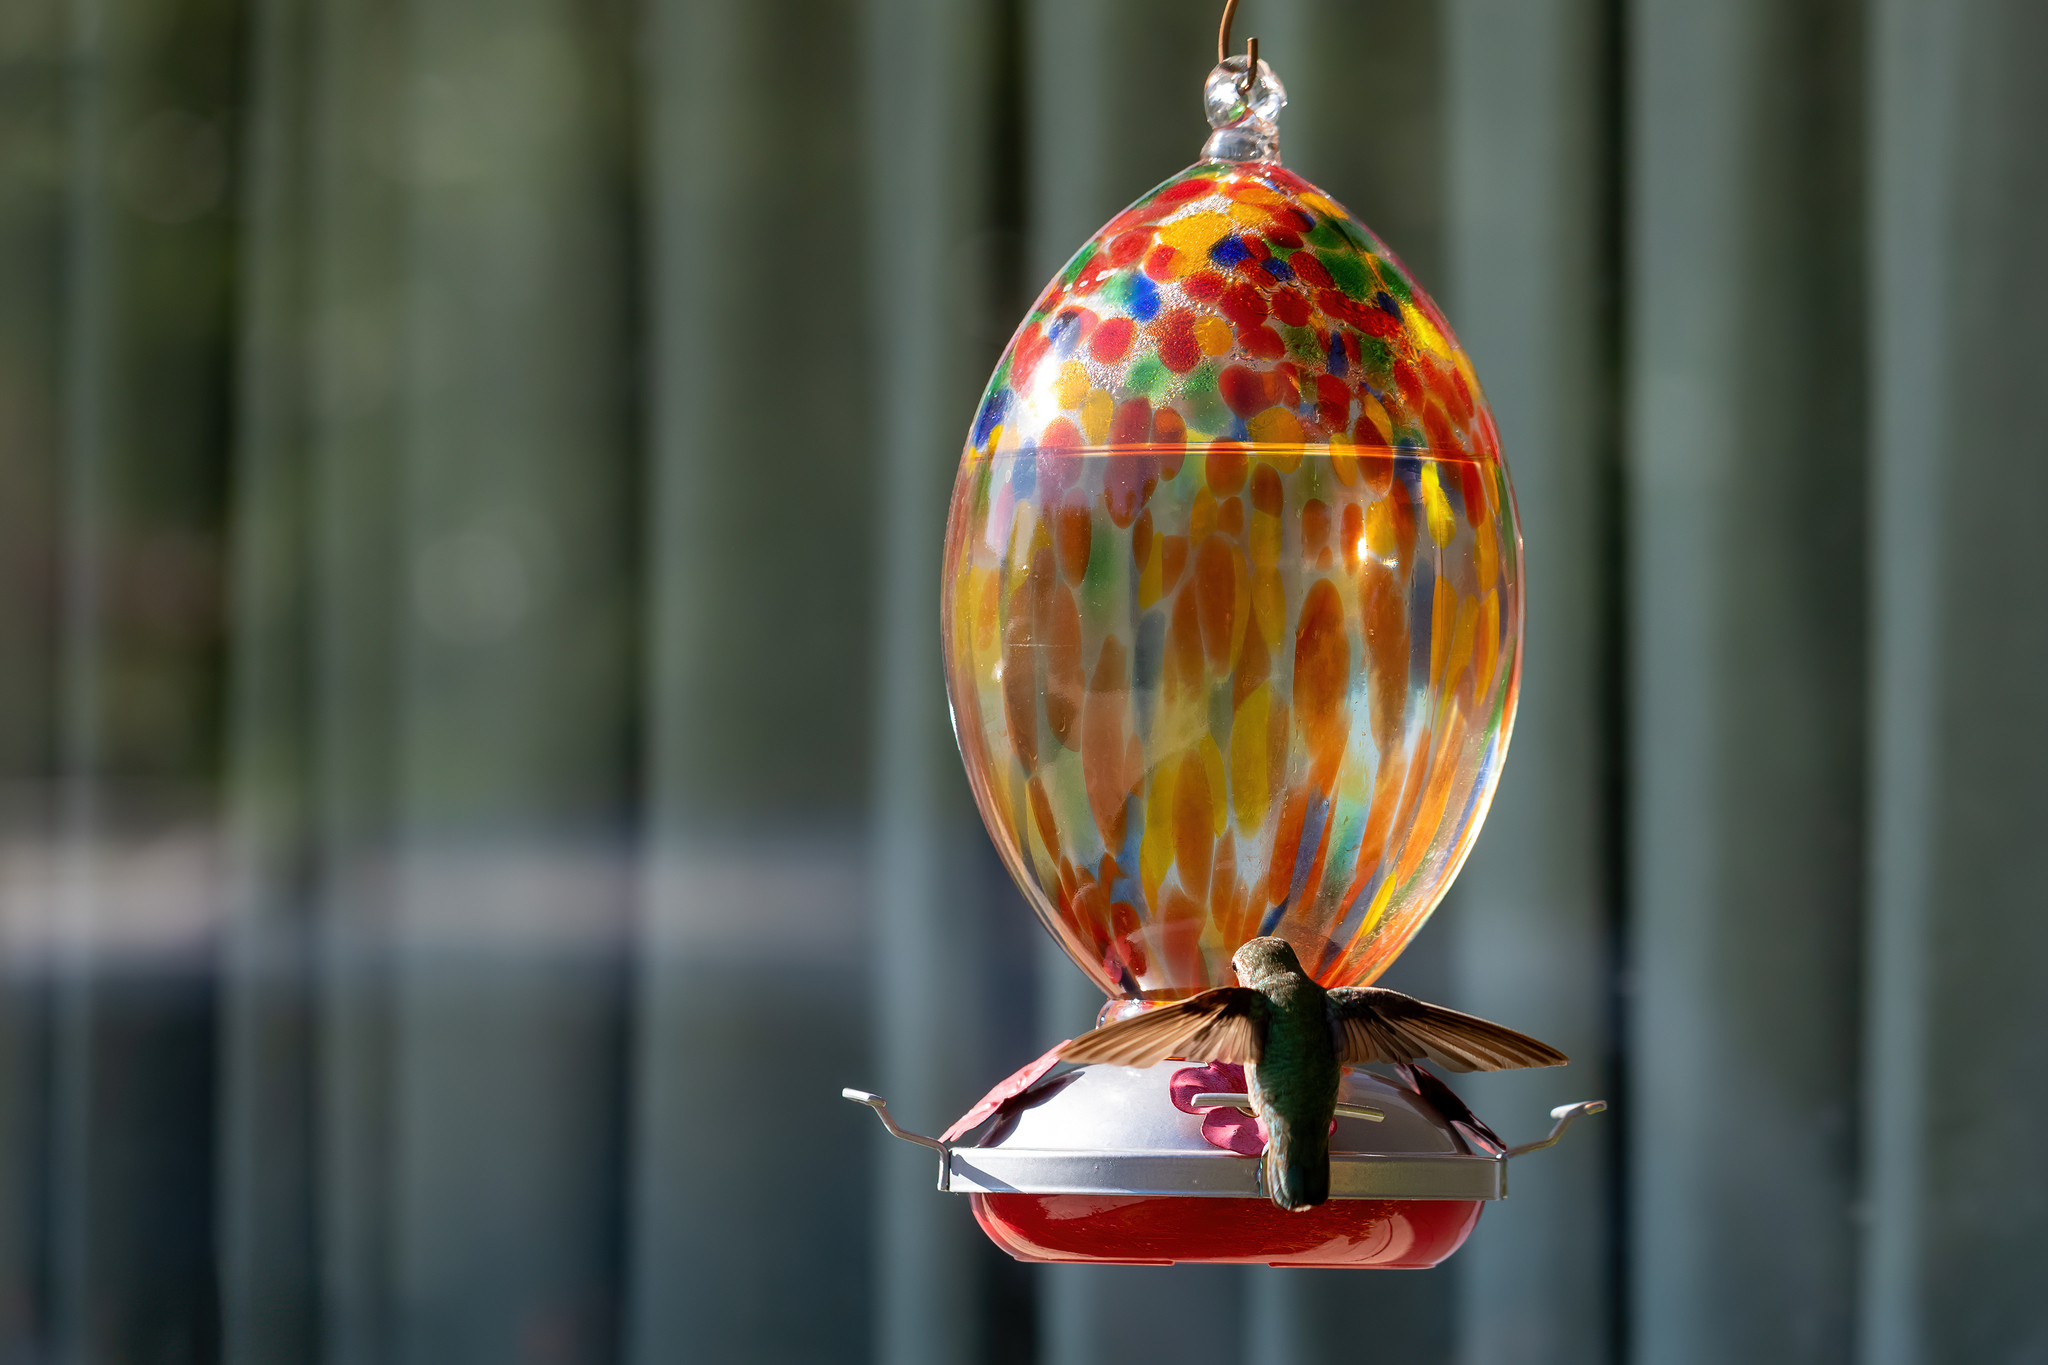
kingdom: Animalia
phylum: Chordata
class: Aves
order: Apodiformes
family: Trochilidae
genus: Calypte
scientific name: Calypte anna
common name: Anna's hummingbird
